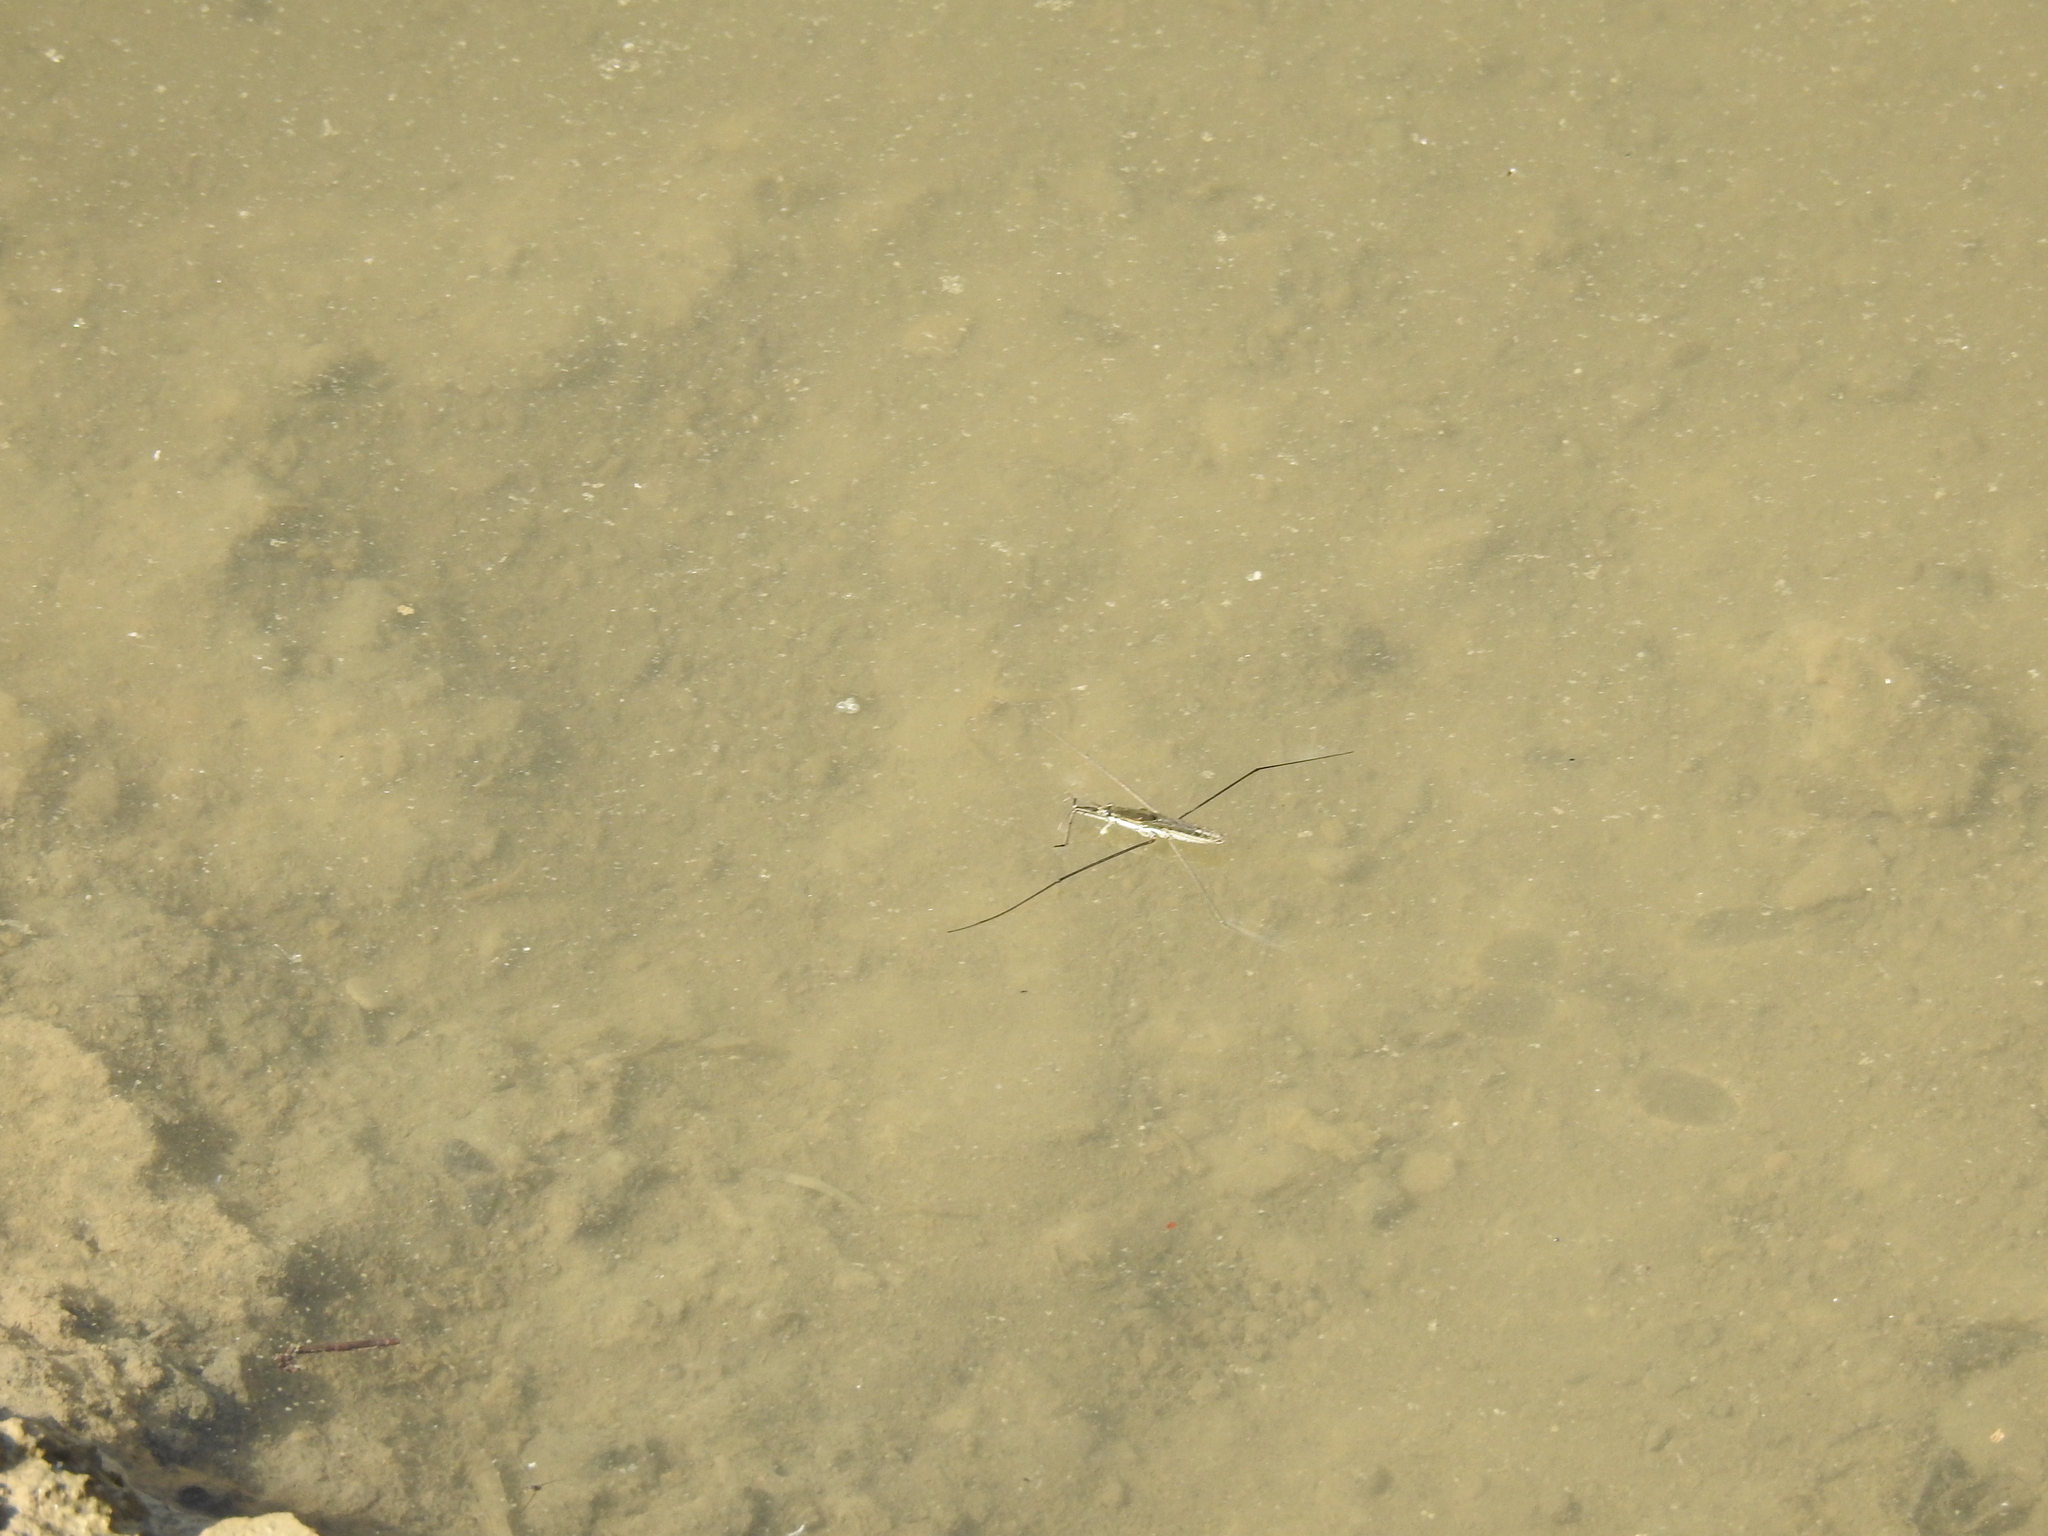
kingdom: Animalia
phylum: Arthropoda
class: Insecta
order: Hemiptera
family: Gerridae
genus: Aquarius
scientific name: Aquarius paludum
